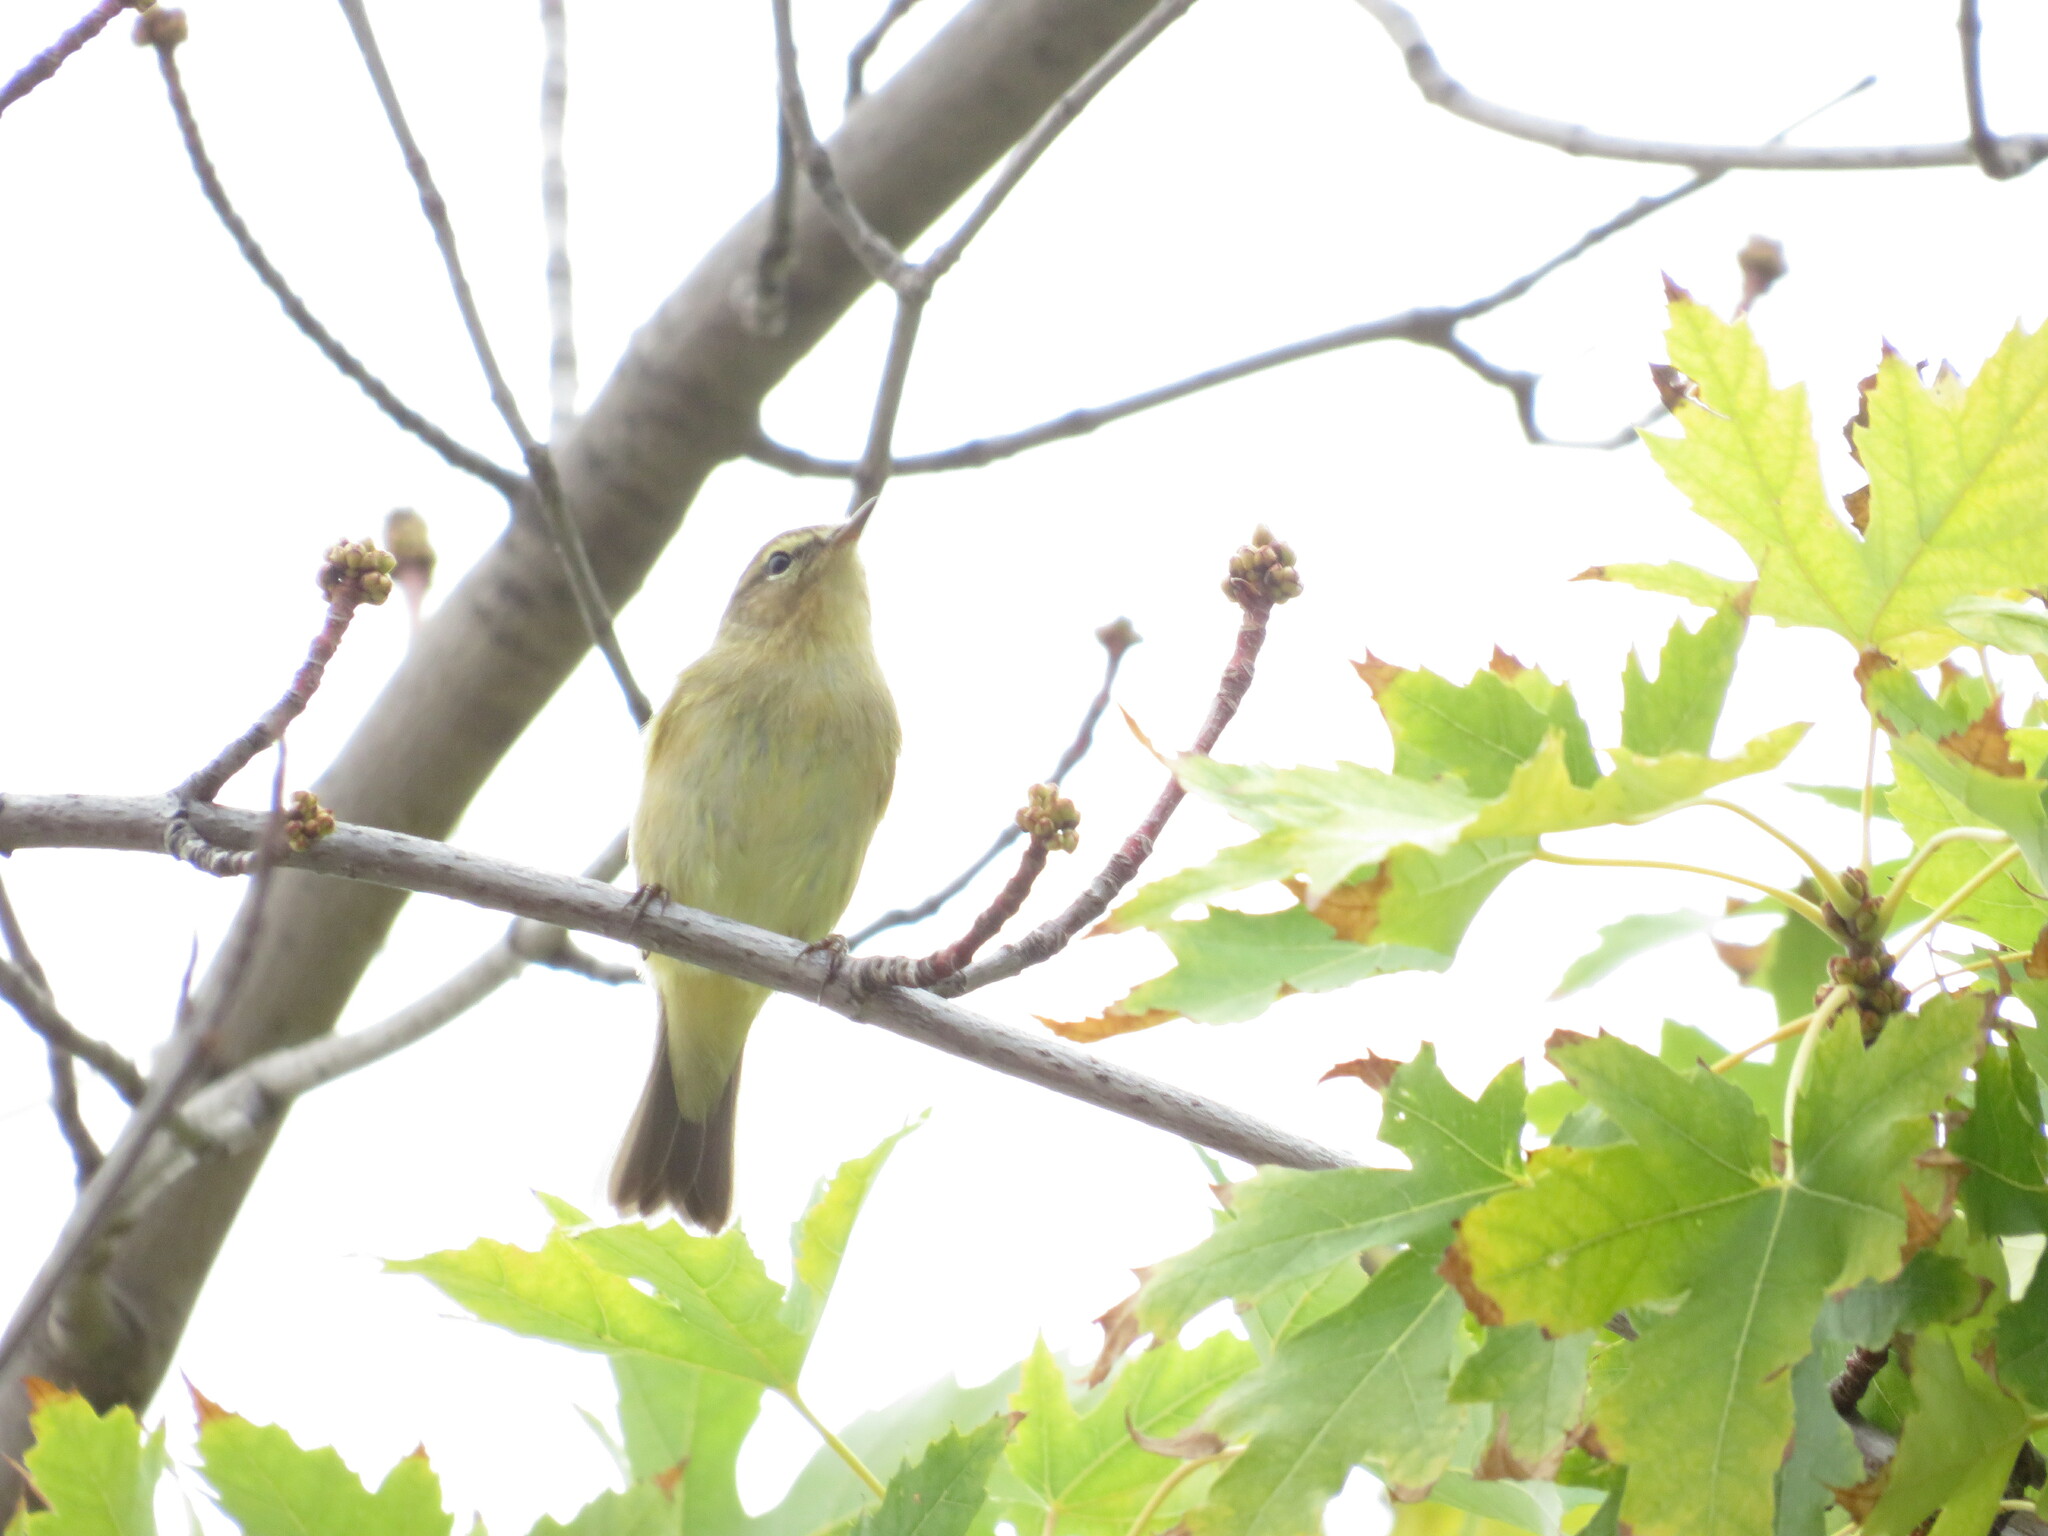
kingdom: Animalia
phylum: Chordata
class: Aves
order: Passeriformes
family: Phylloscopidae
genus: Phylloscopus
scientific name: Phylloscopus collybita
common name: Common chiffchaff
